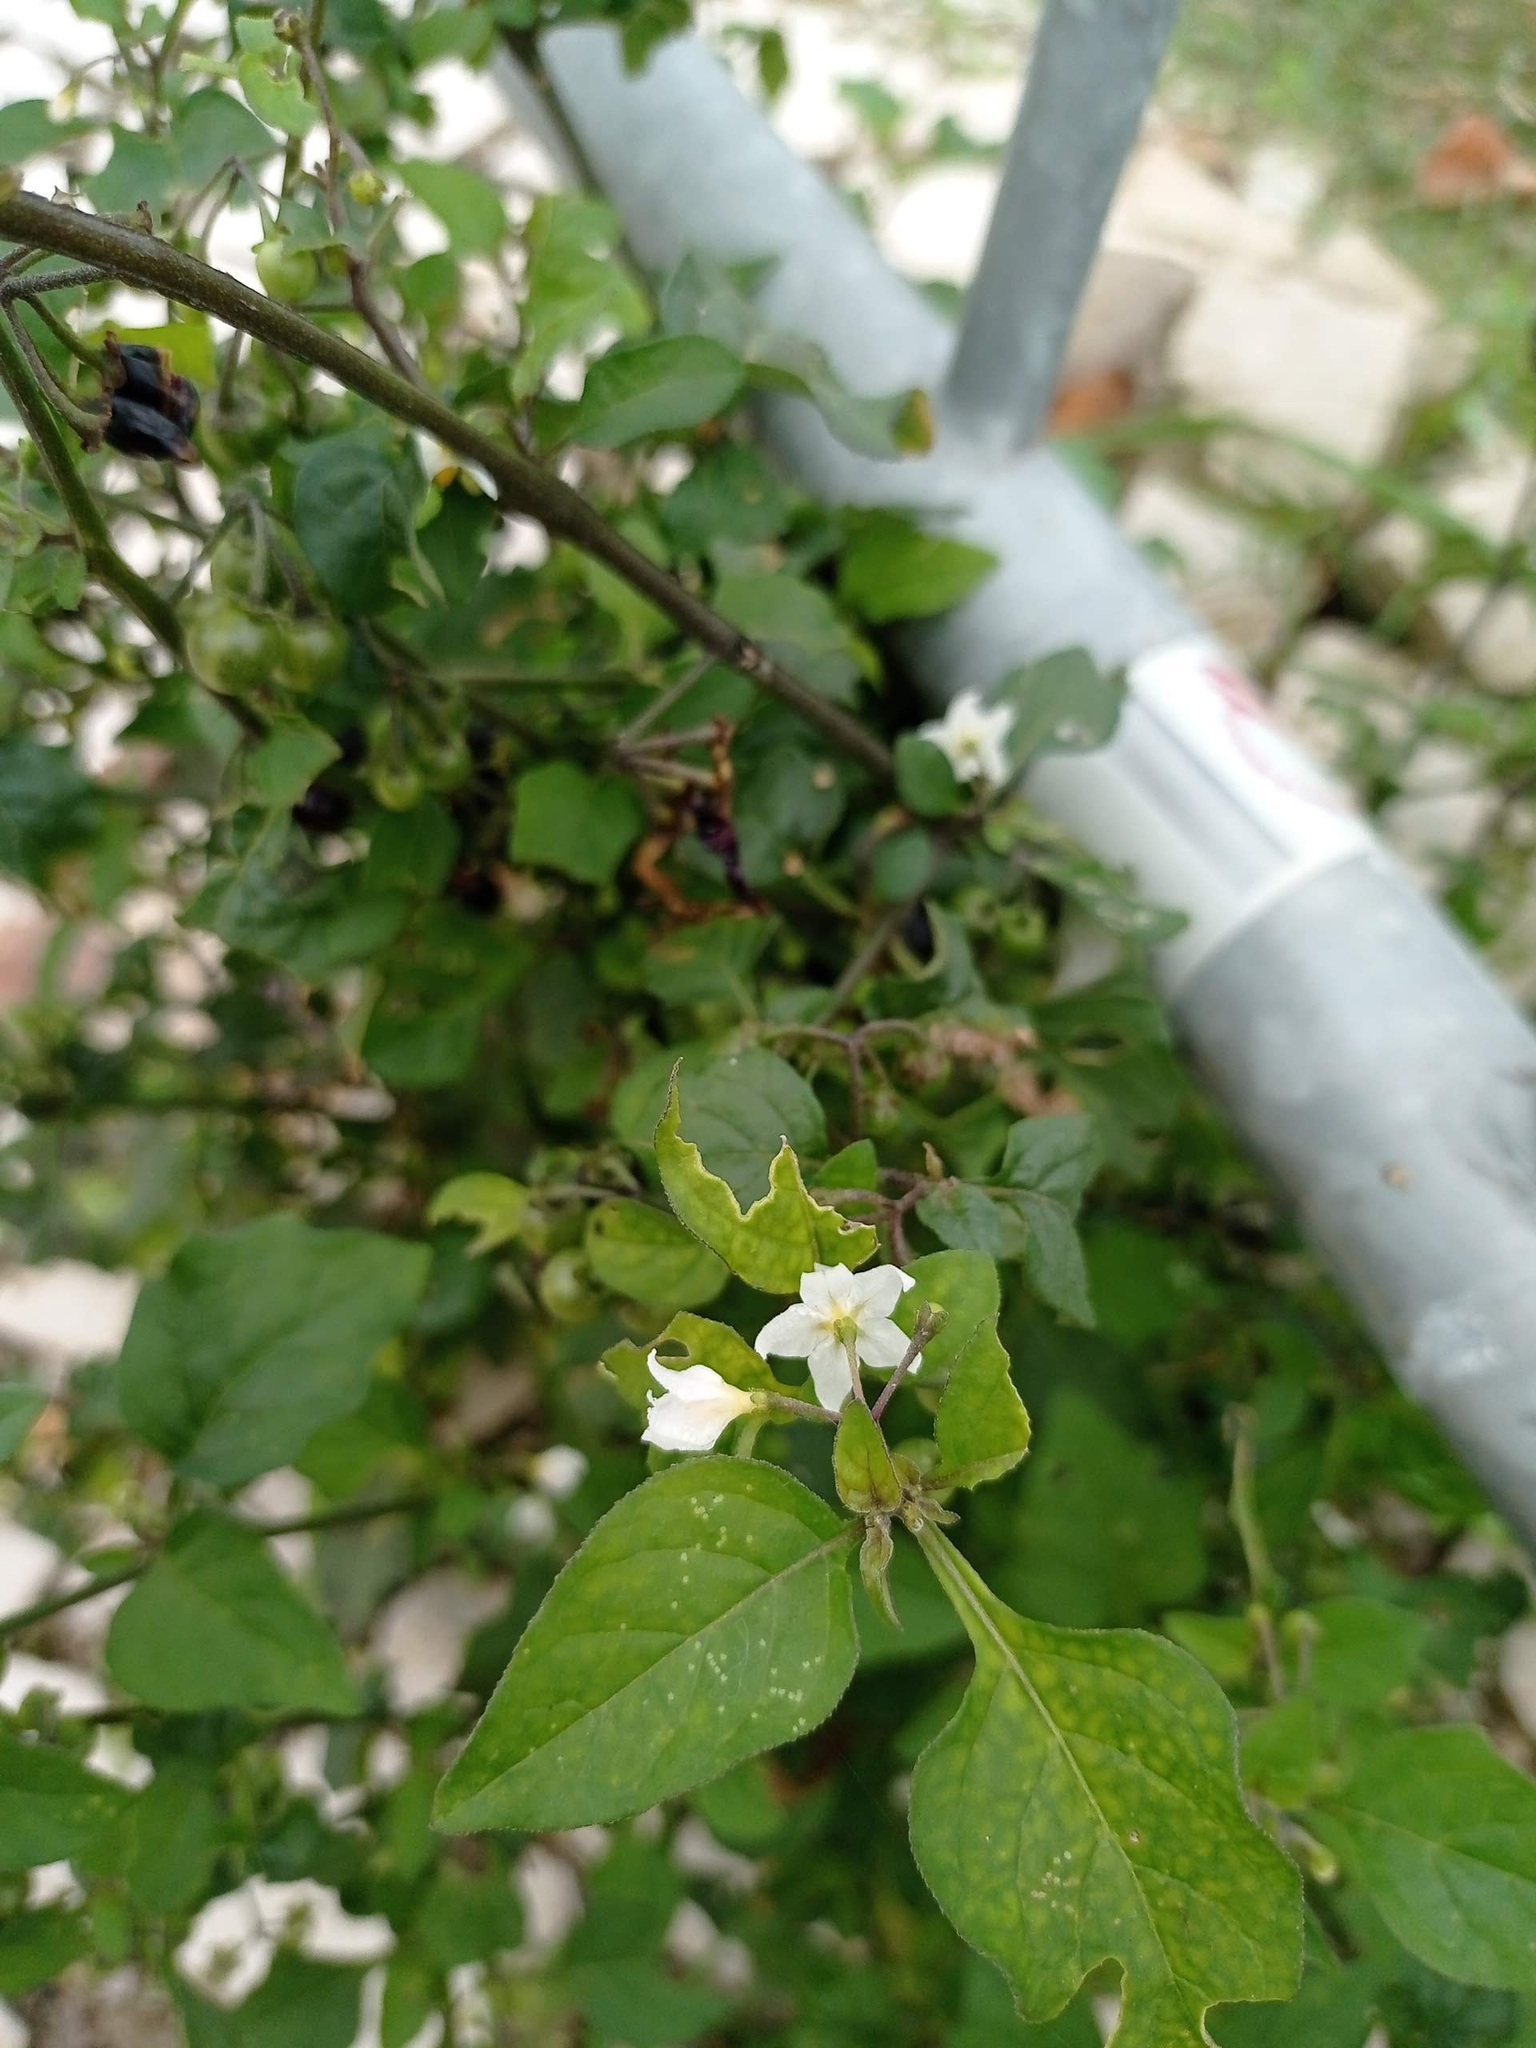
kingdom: Plantae
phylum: Tracheophyta
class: Magnoliopsida
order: Solanales
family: Solanaceae
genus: Solanum
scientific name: Solanum nigrum
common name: Black nightshade
